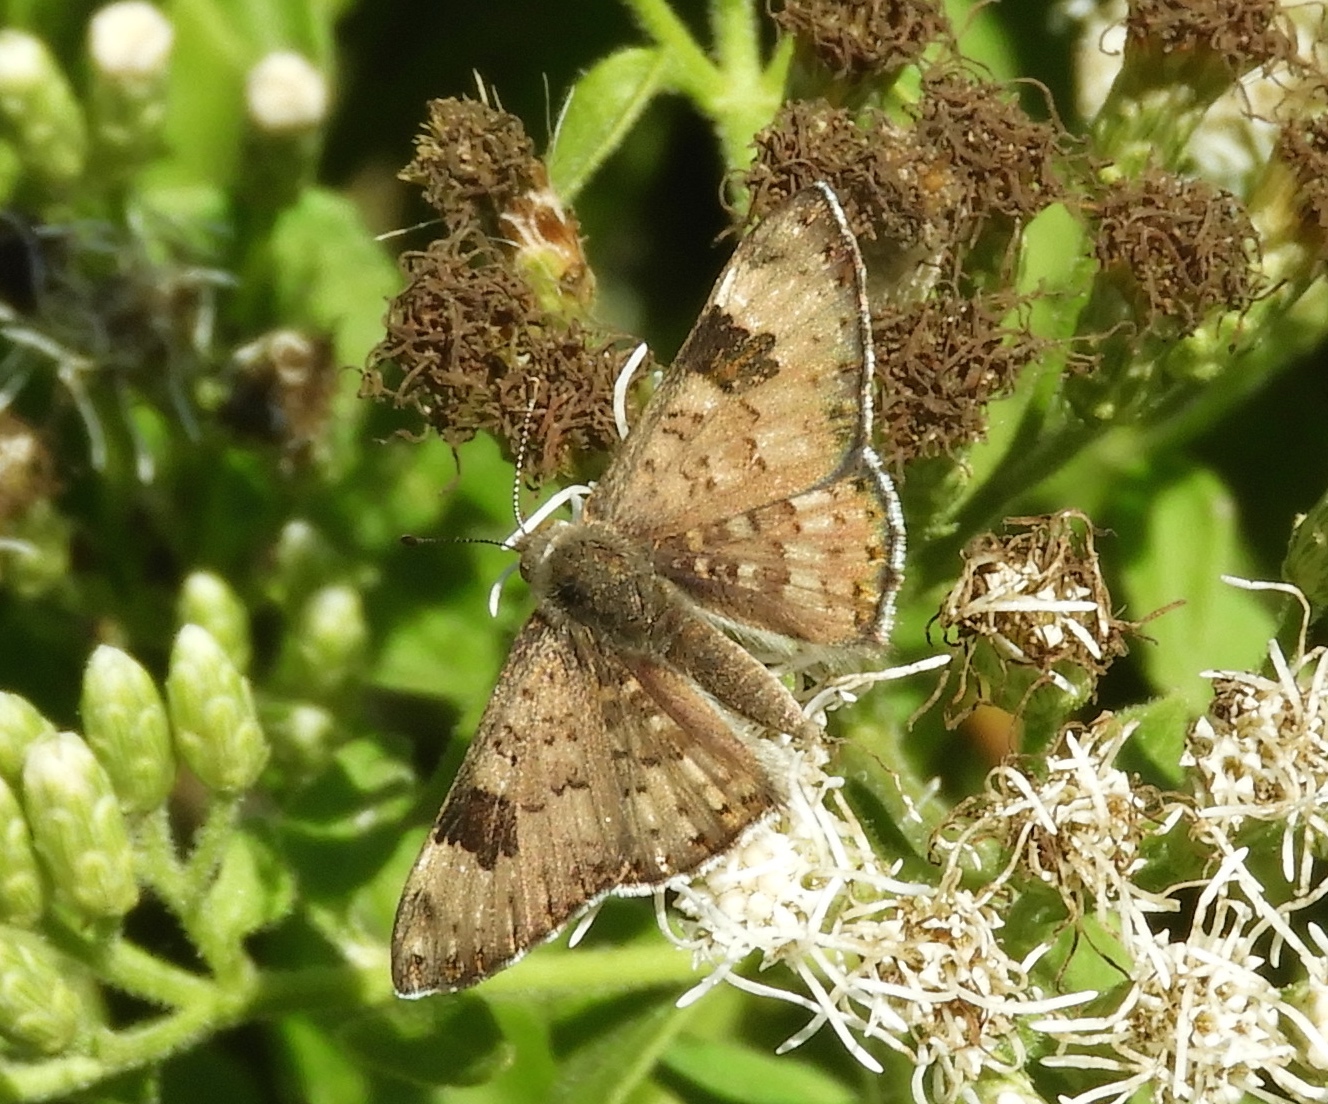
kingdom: Animalia
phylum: Arthropoda
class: Insecta
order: Lepidoptera
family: Riodinidae
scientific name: Riodinidae
